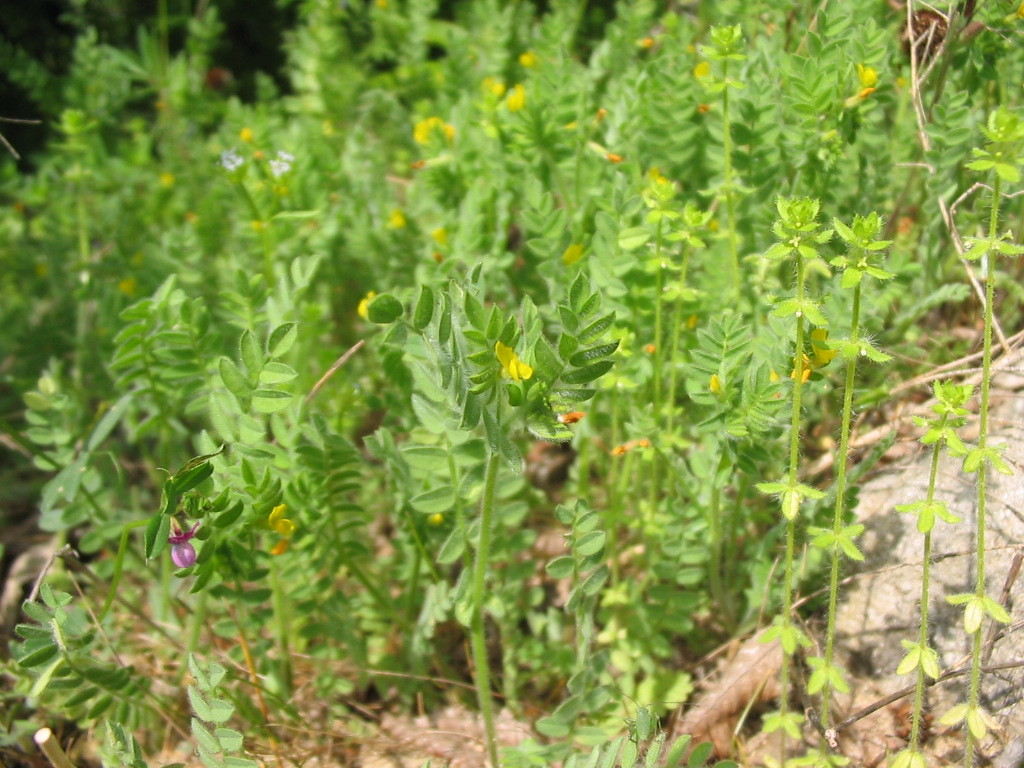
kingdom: Plantae
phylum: Tracheophyta
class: Magnoliopsida
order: Fabales
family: Fabaceae
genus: Ornithopus
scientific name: Ornithopus compressus
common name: Yellow serradella
